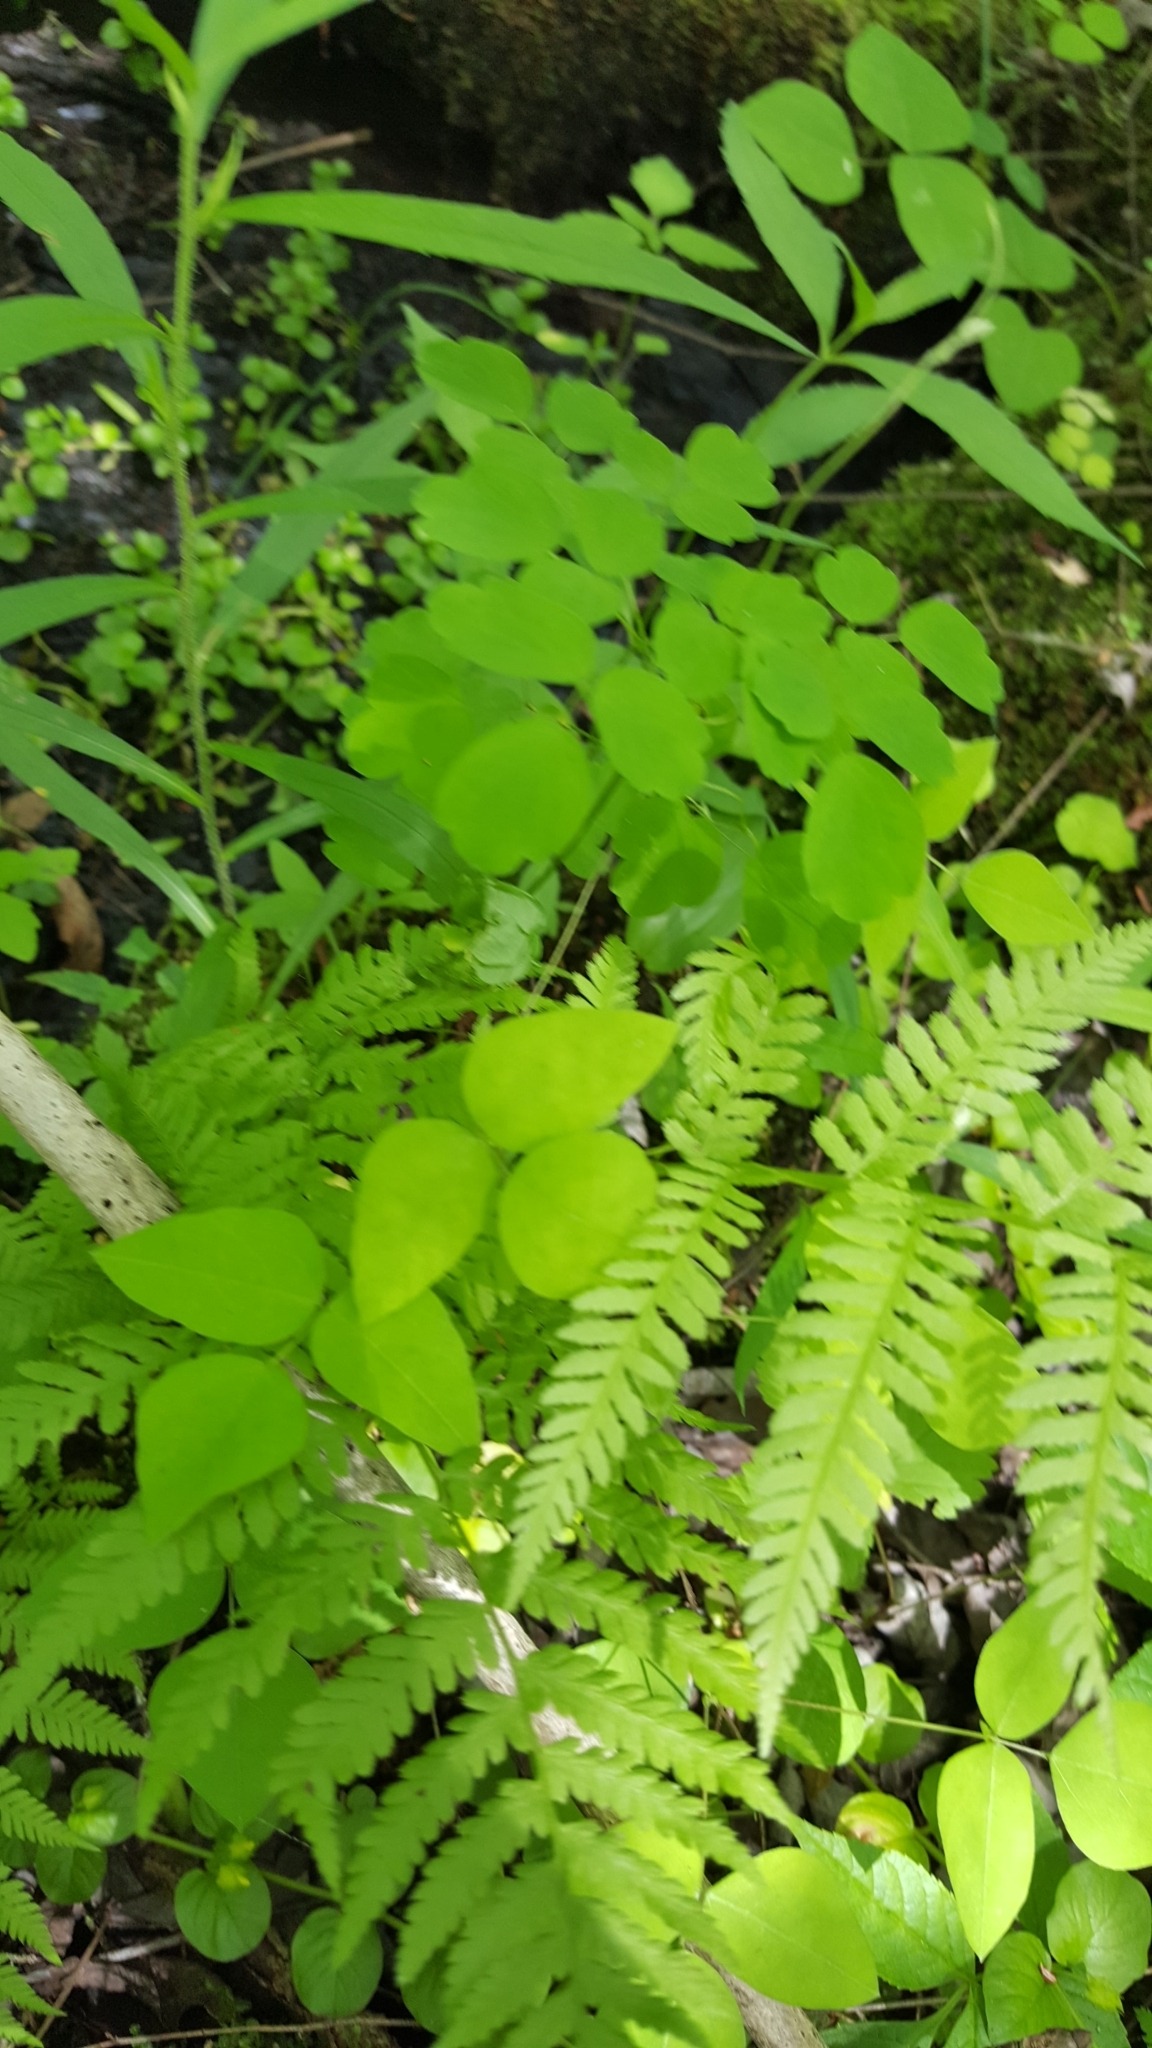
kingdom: Plantae
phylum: Tracheophyta
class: Magnoliopsida
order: Fabales
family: Fabaceae
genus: Amphicarpaea
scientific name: Amphicarpaea bracteata
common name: American hog peanut
